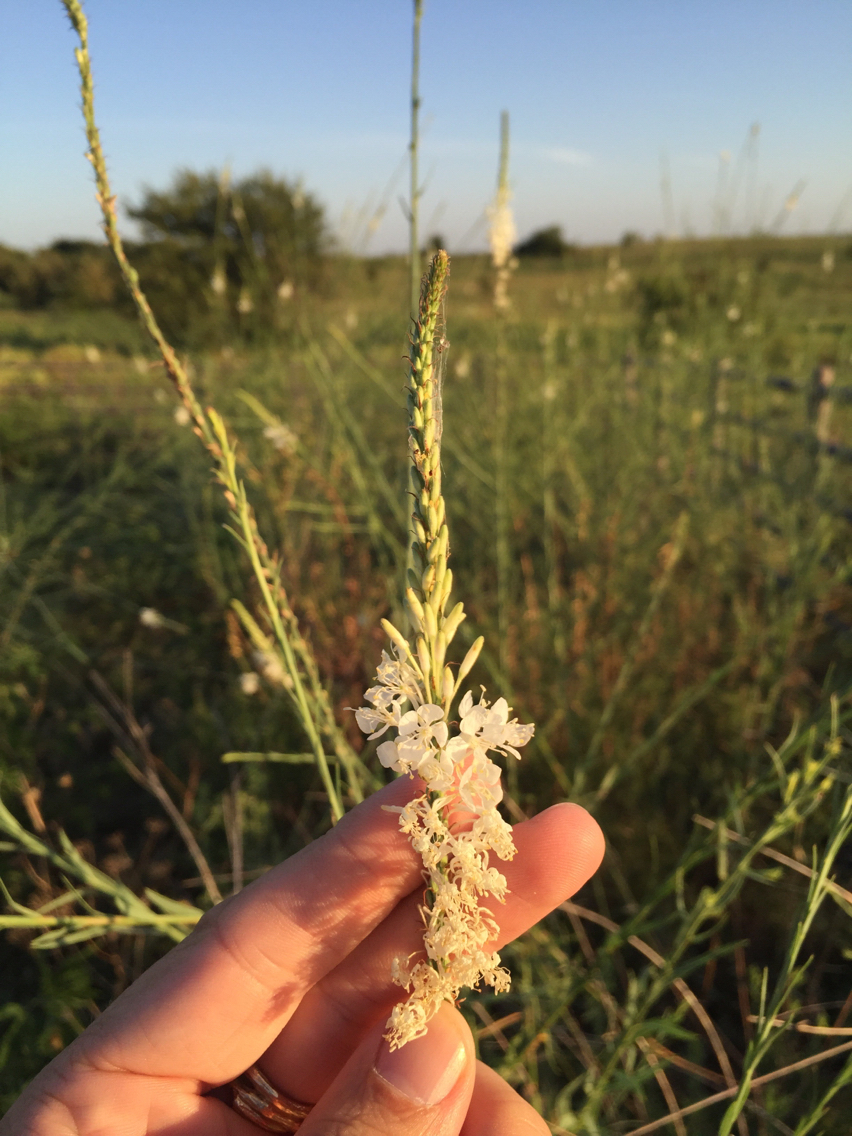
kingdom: Plantae
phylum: Tracheophyta
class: Magnoliopsida
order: Myrtales
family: Onagraceae
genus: Oenothera
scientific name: Oenothera glaucifolia
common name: False gaura
